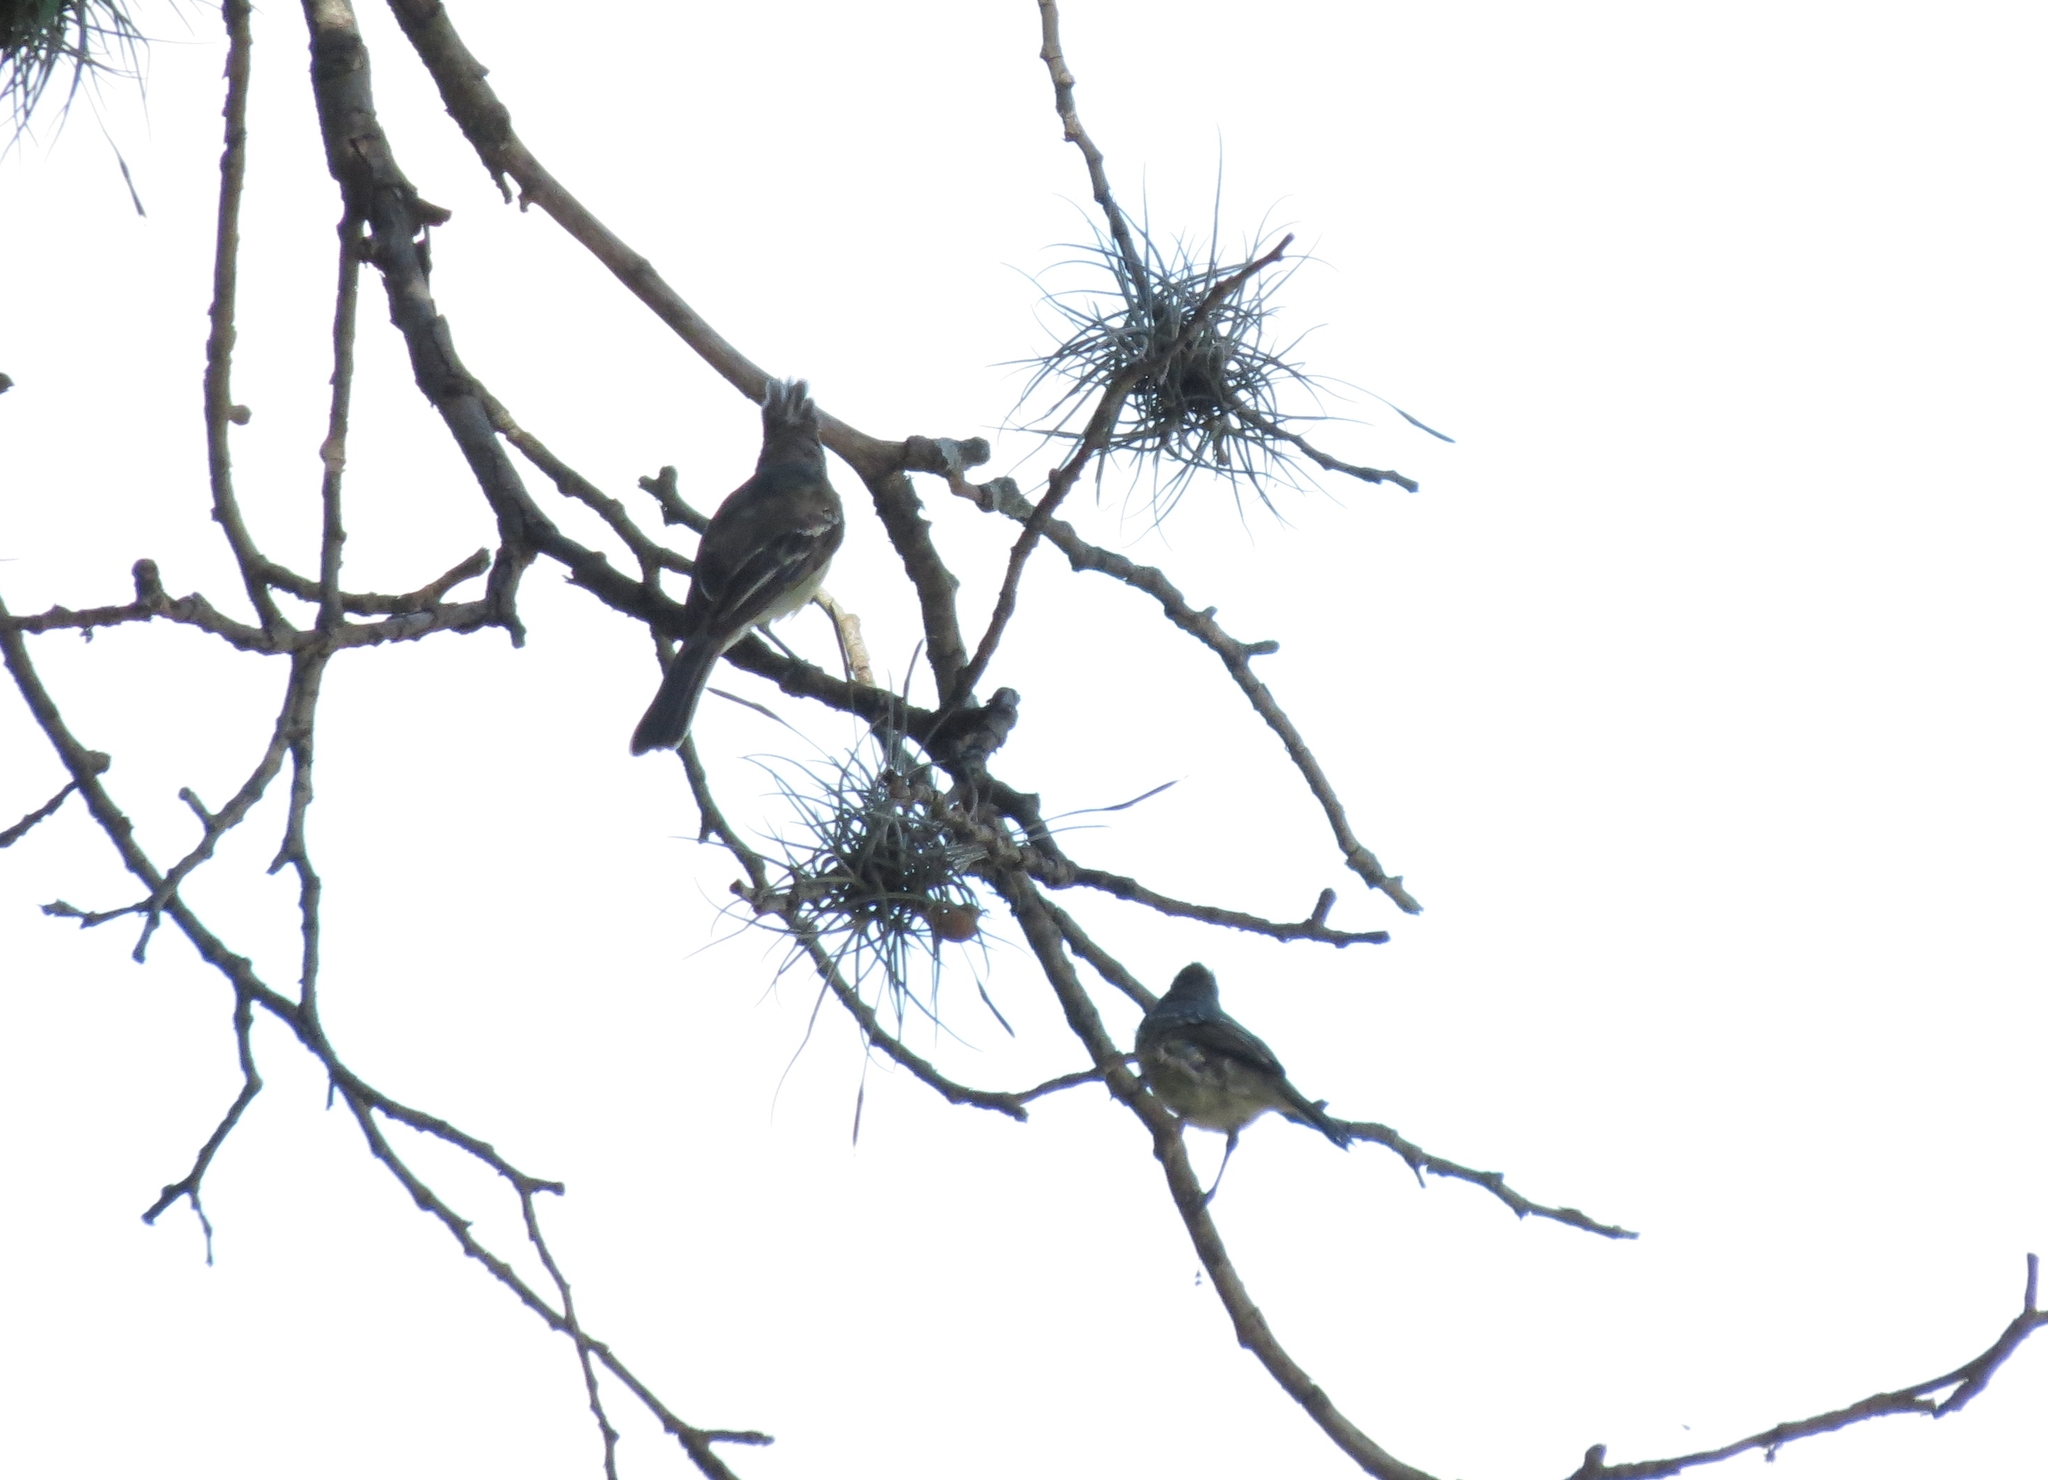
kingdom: Animalia
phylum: Chordata
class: Aves
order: Passeriformes
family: Tyrannidae
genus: Elaenia
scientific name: Elaenia flavogaster
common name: Yellow-bellied elaenia
